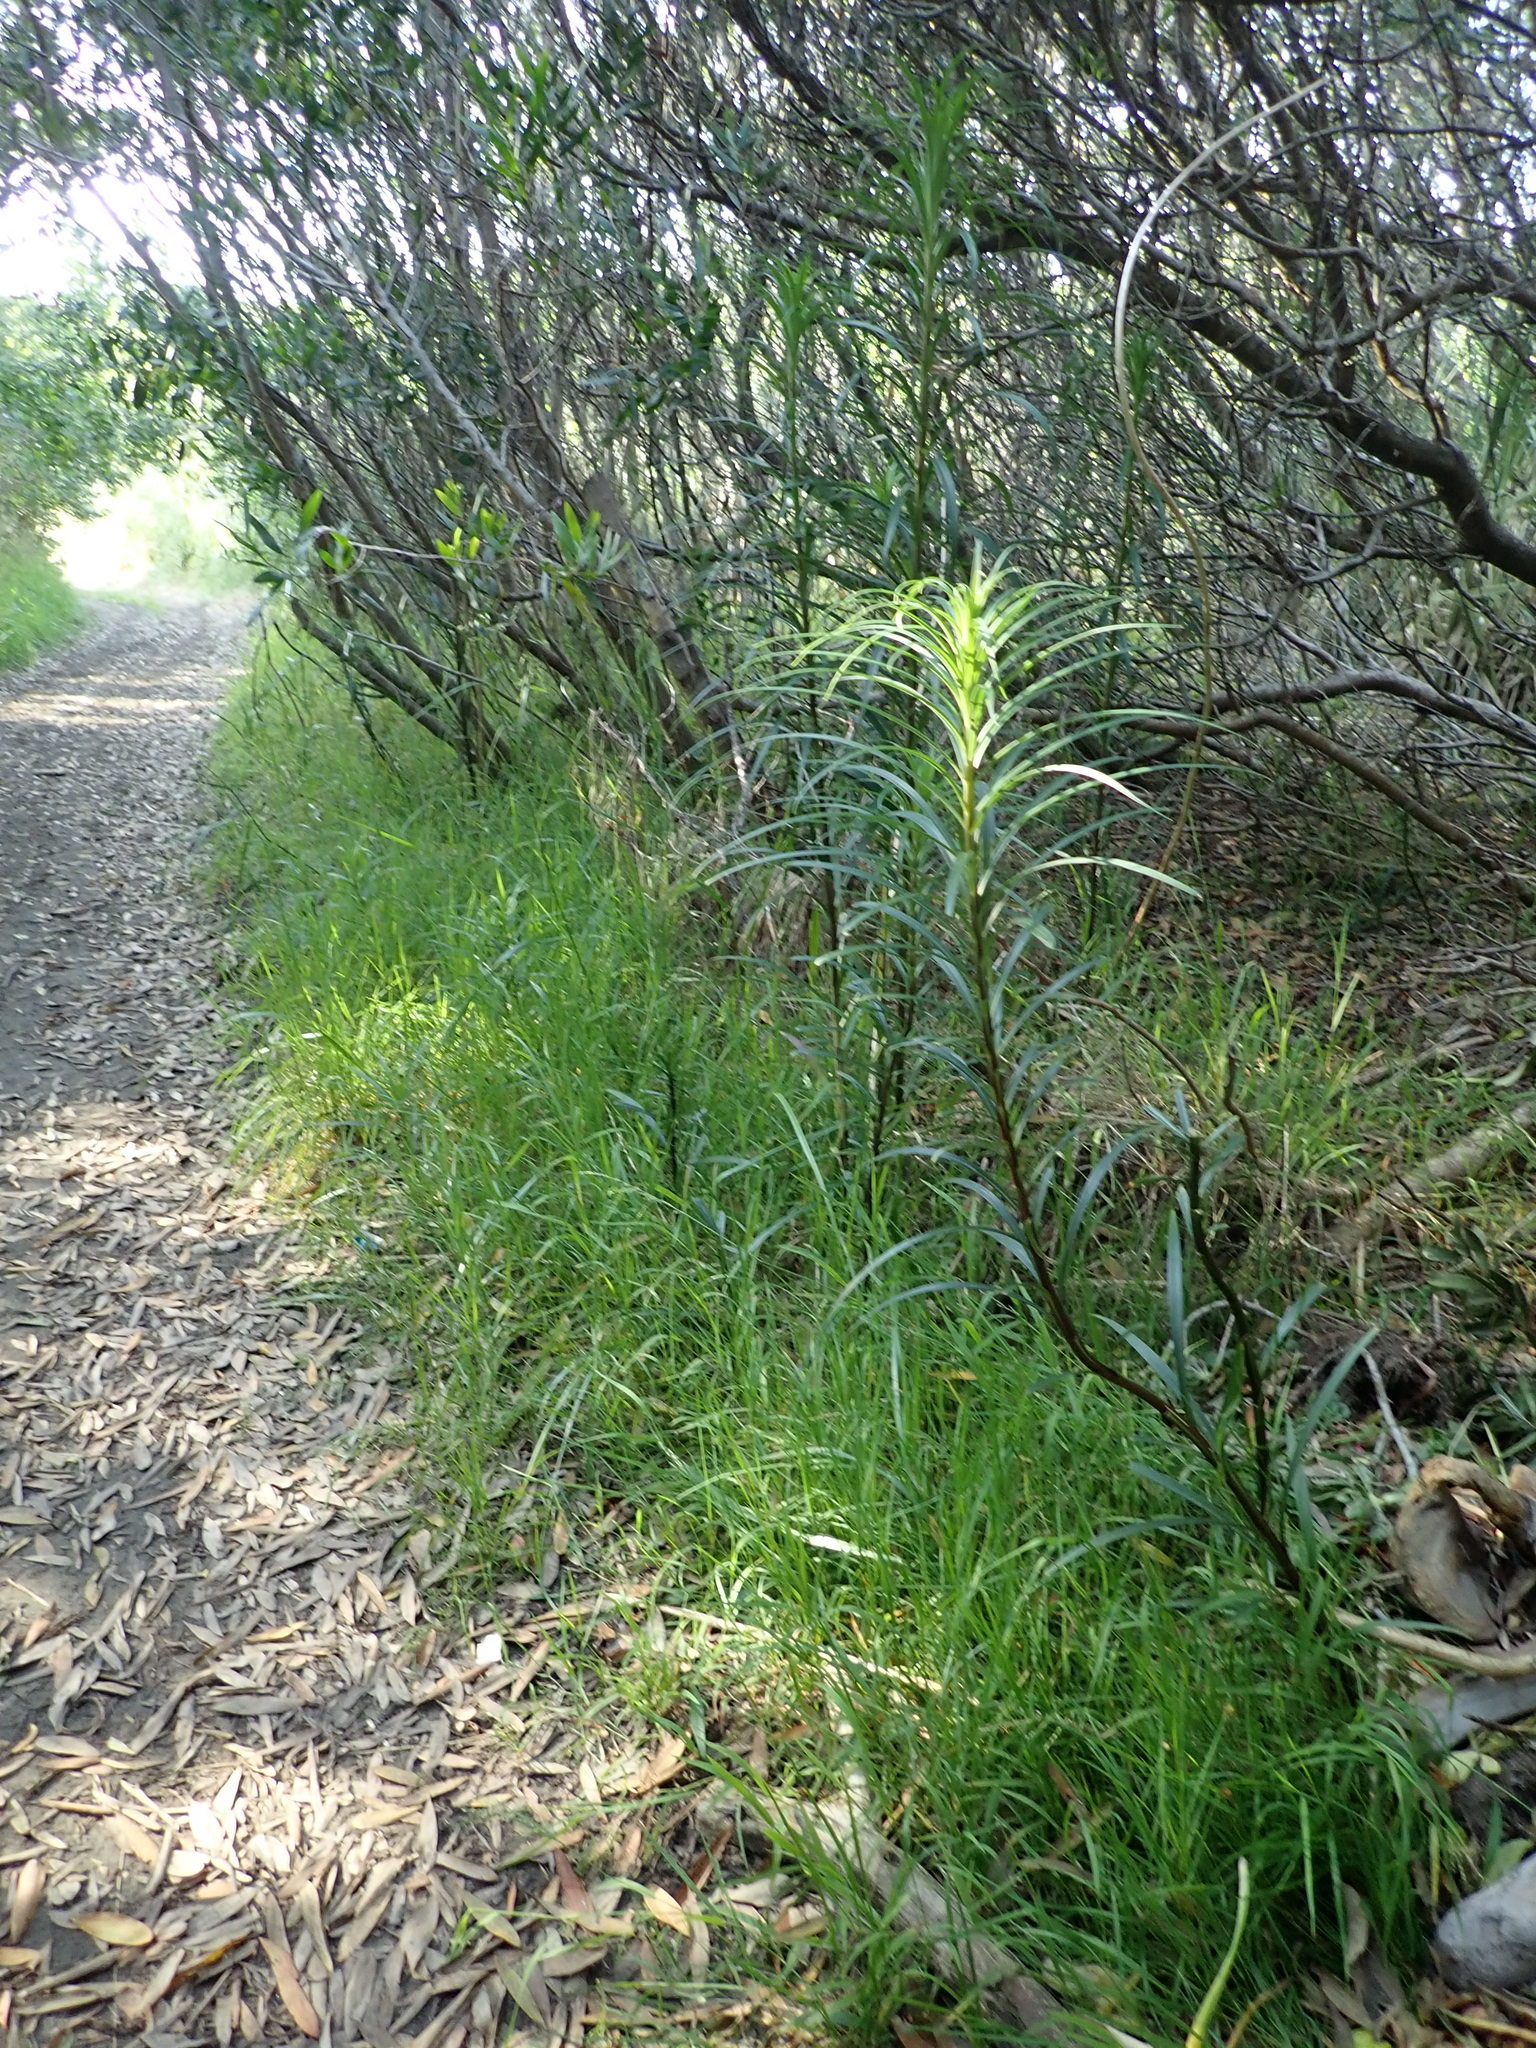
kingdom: Plantae
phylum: Tracheophyta
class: Liliopsida
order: Liliales
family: Liliaceae
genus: Lilium
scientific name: Lilium formosanum
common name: Formosa lily
